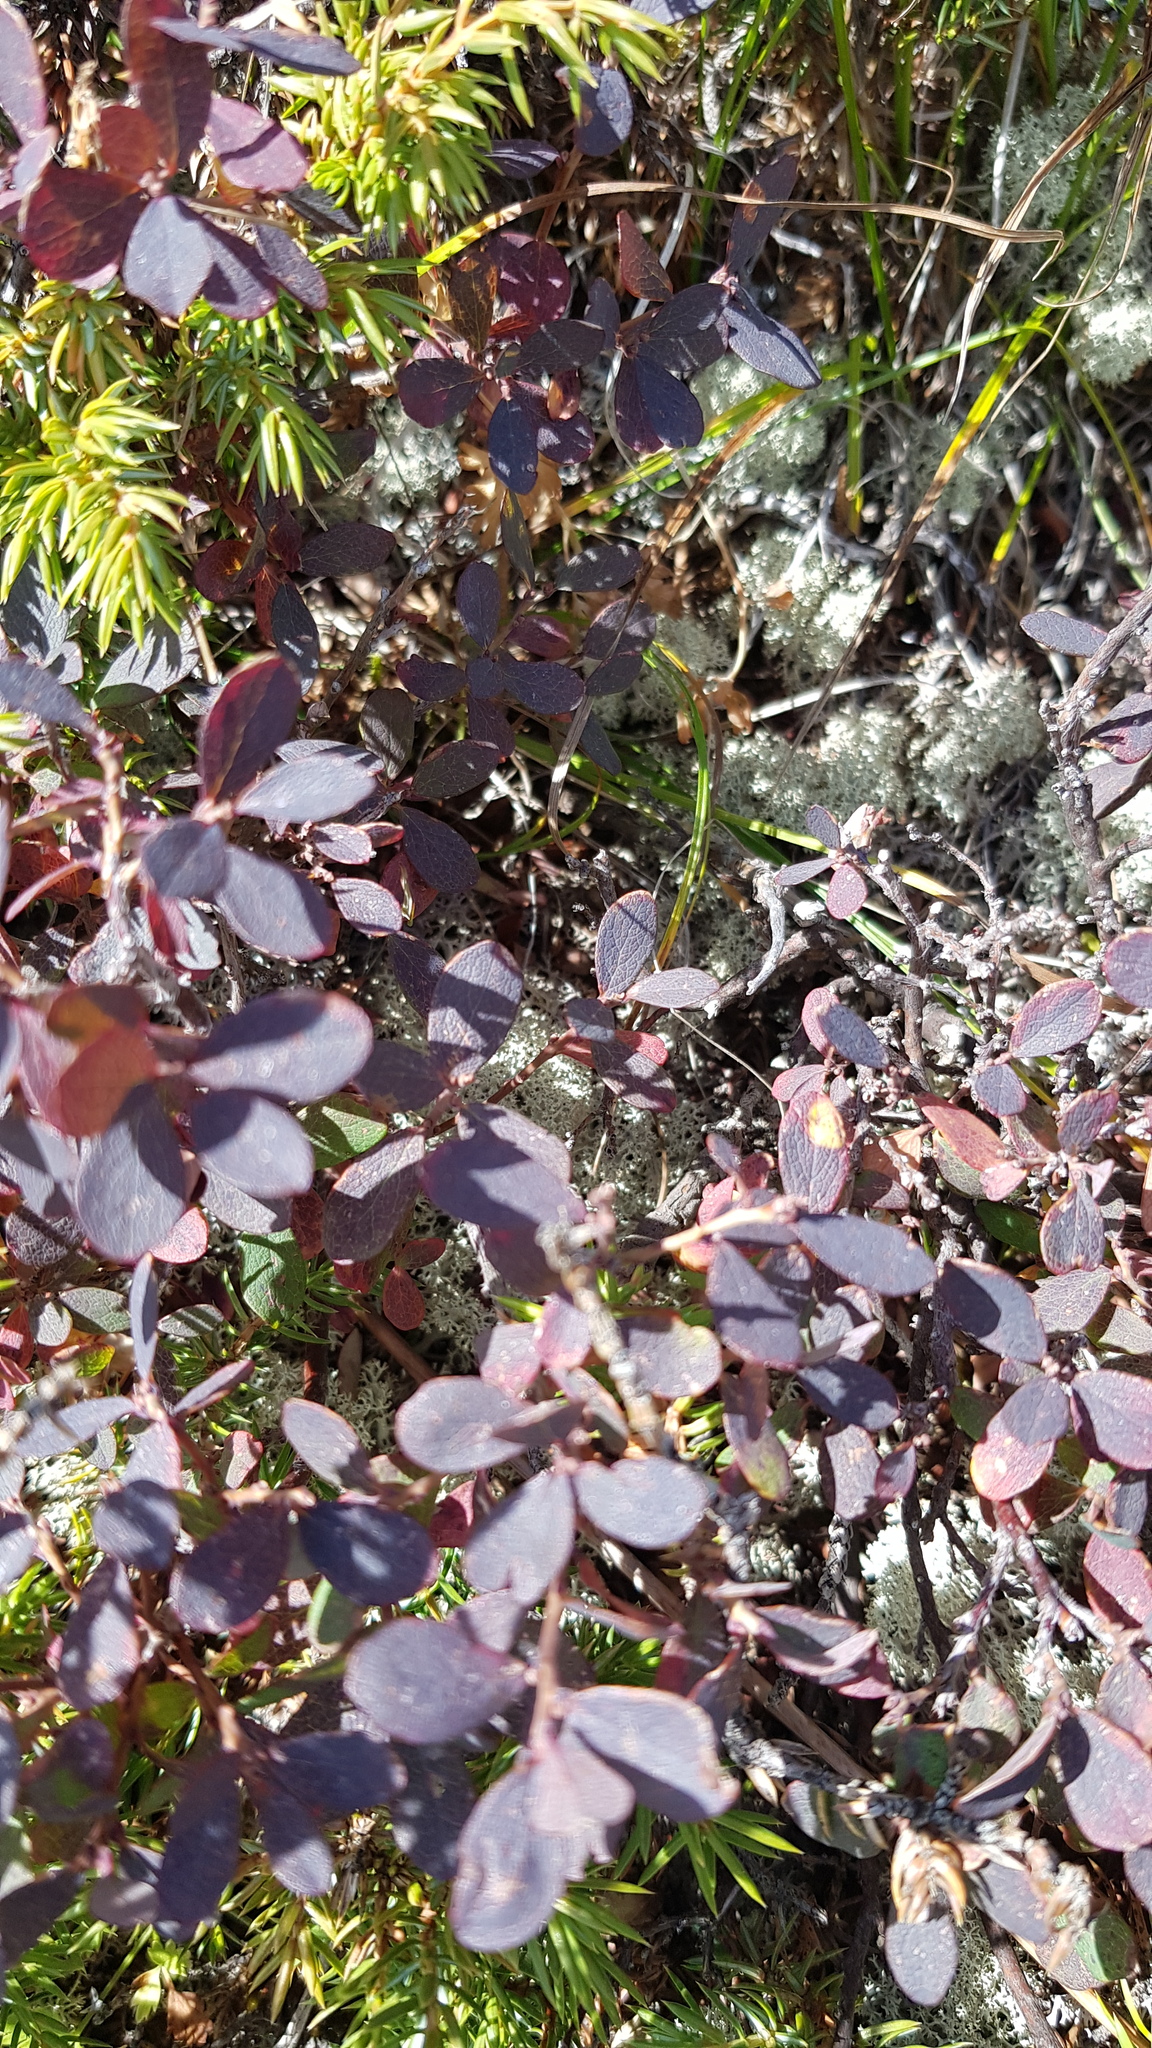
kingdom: Plantae
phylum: Tracheophyta
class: Magnoliopsida
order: Ericales
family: Ericaceae
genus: Vaccinium
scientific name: Vaccinium uliginosum
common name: Bog bilberry
